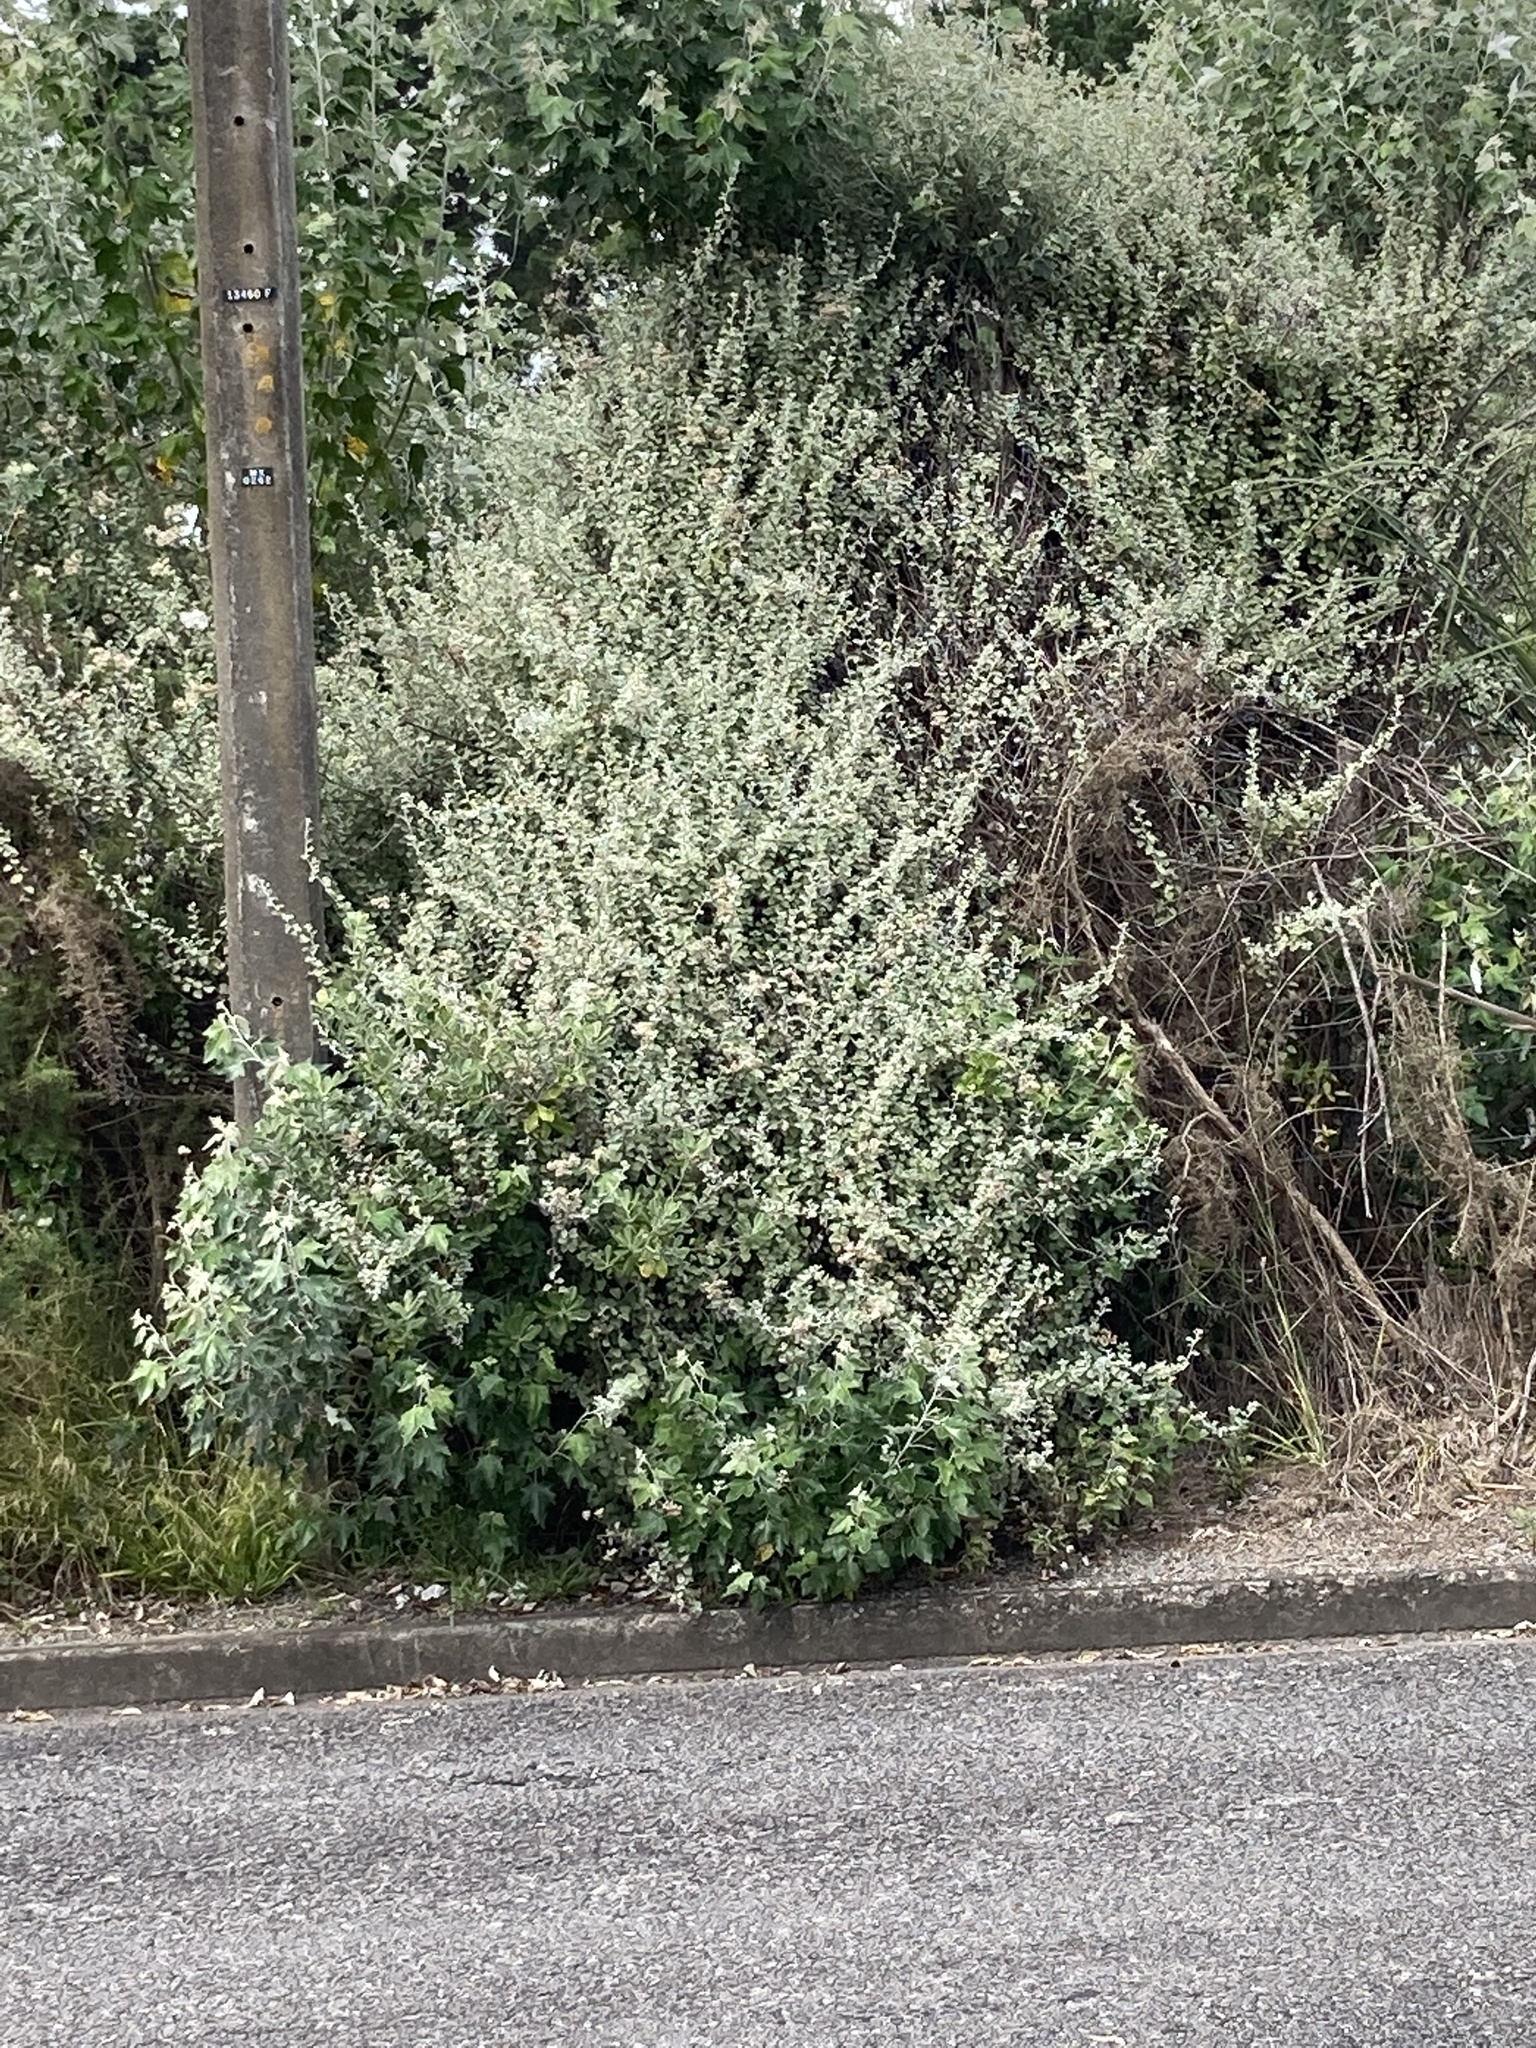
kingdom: Plantae
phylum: Tracheophyta
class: Magnoliopsida
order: Asterales
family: Asteraceae
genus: Helichrysum
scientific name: Helichrysum petiolare
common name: Licorice-plant
